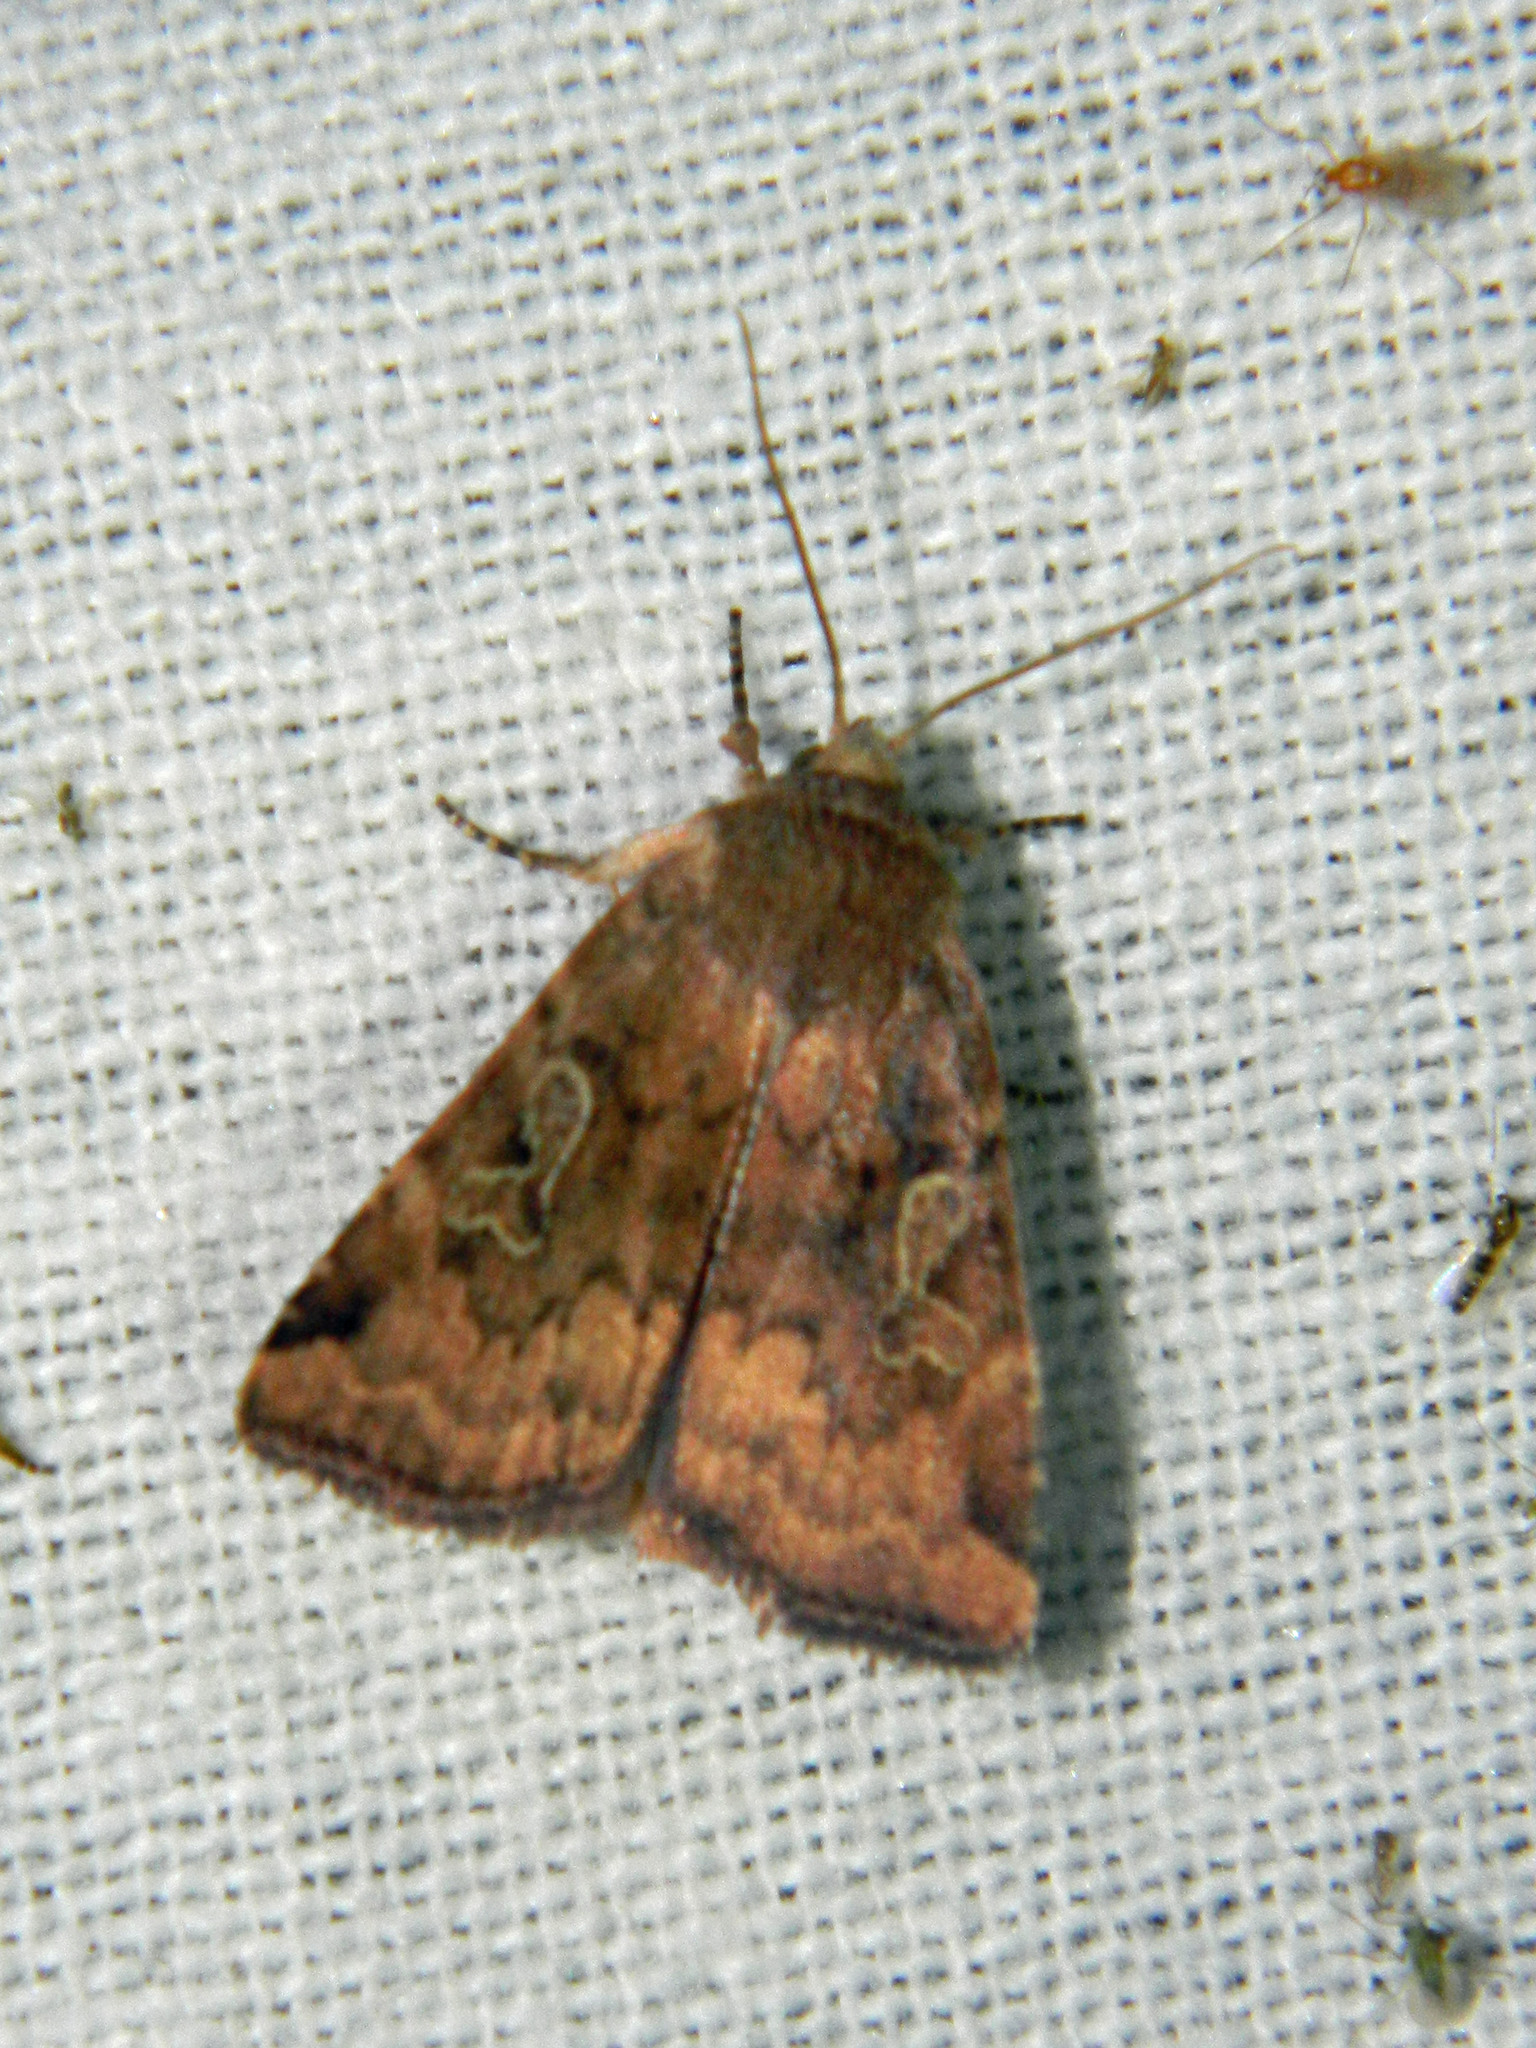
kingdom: Animalia
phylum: Arthropoda
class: Insecta
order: Lepidoptera
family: Noctuidae
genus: Cryptocala
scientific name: Cryptocala acadiensis
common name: Catocaline dart
